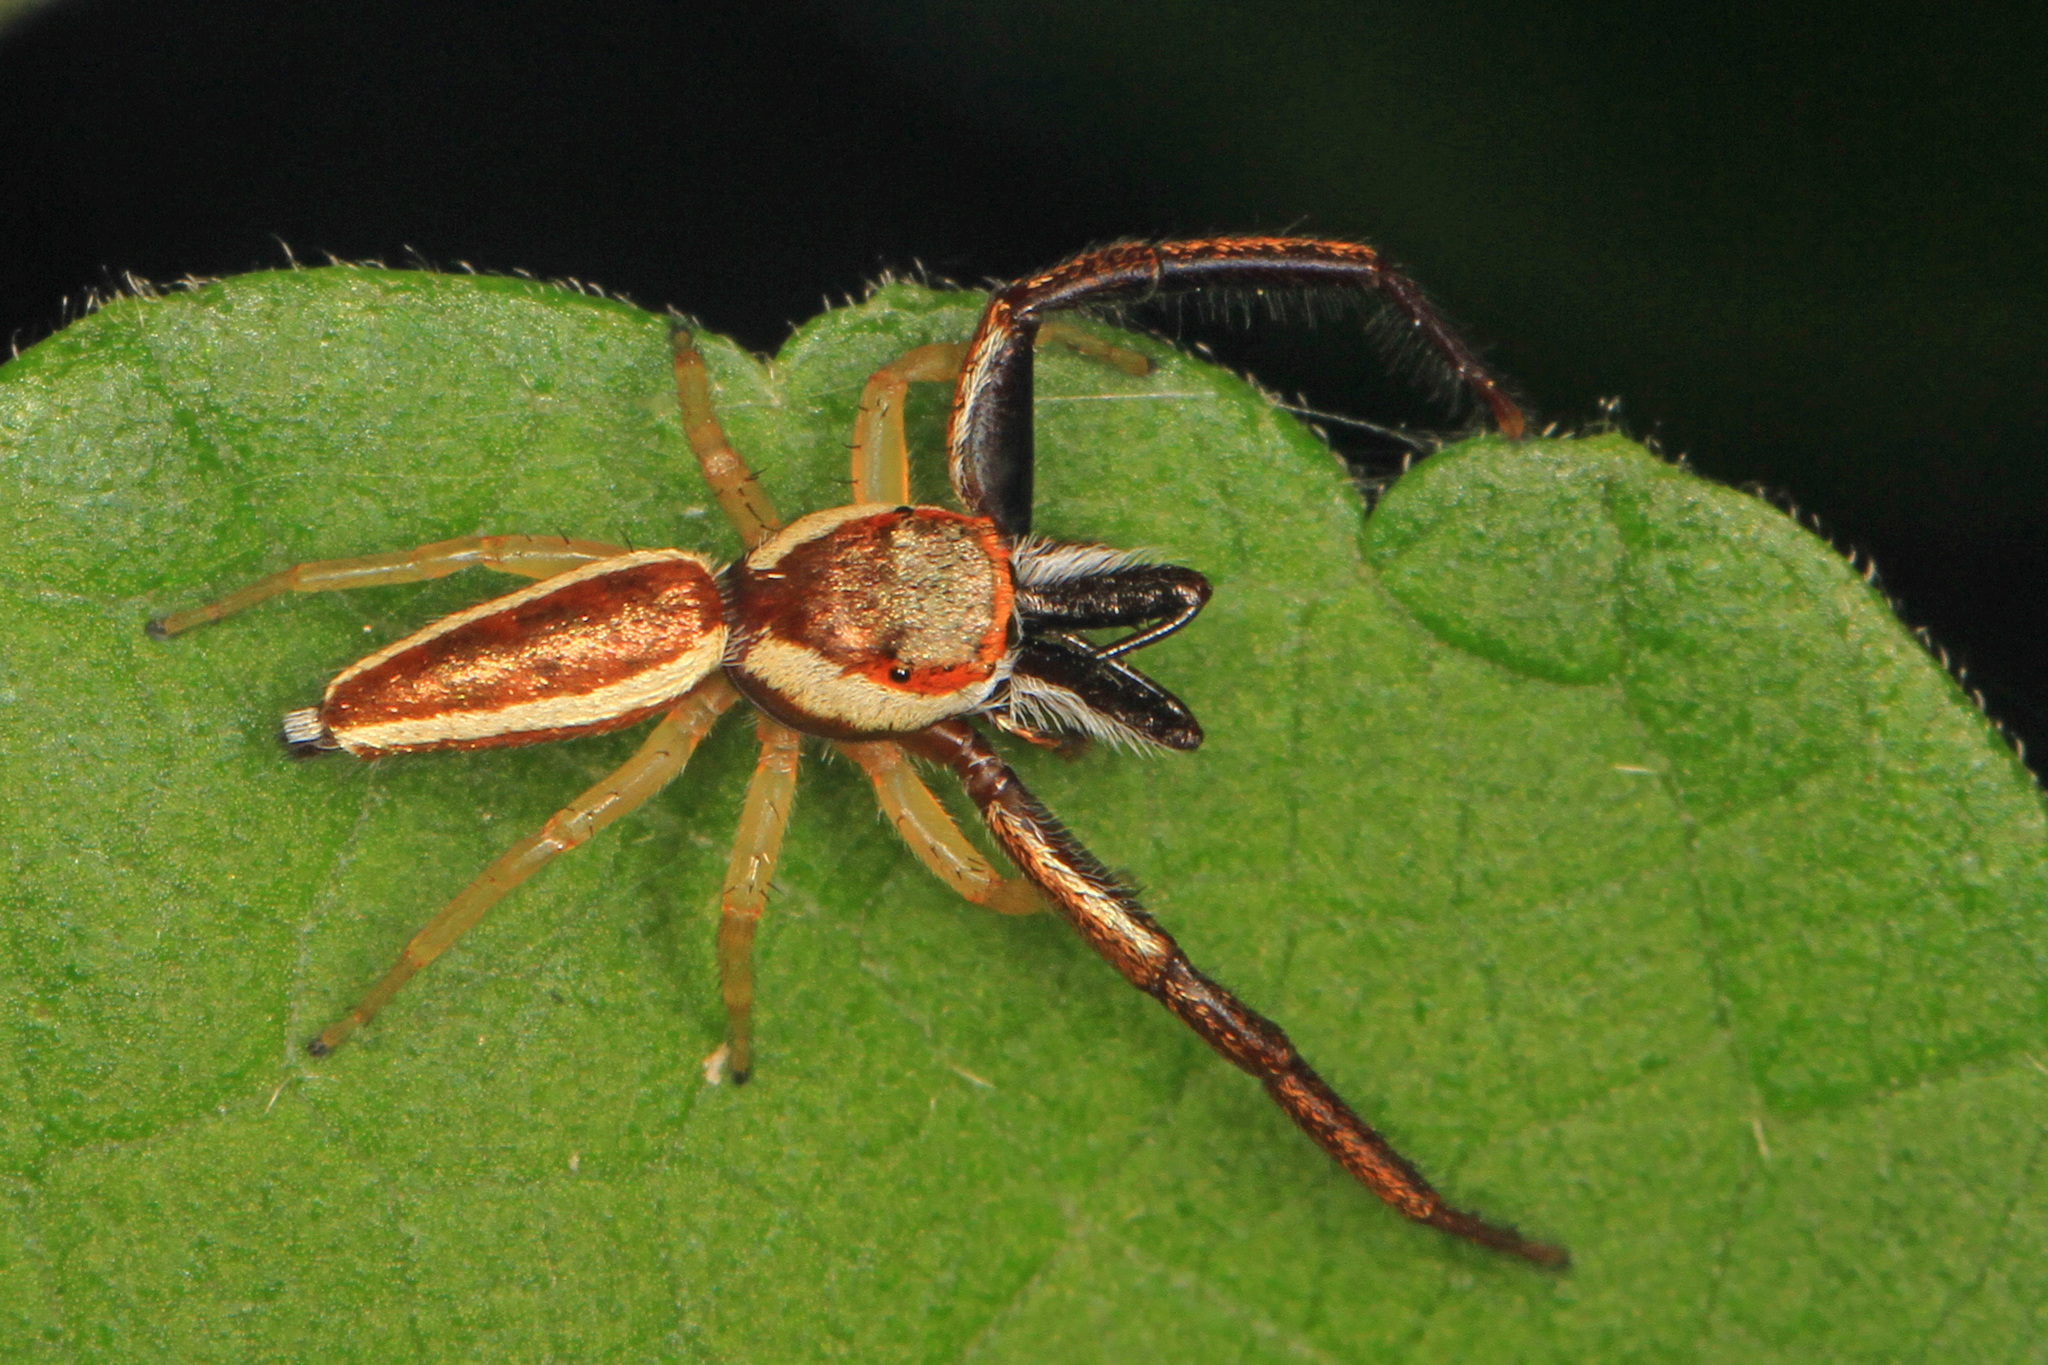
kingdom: Animalia
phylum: Arthropoda
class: Arachnida
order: Araneae
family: Salticidae
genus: Hentzia
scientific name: Hentzia palmarum
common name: Common hentz jumping spider
